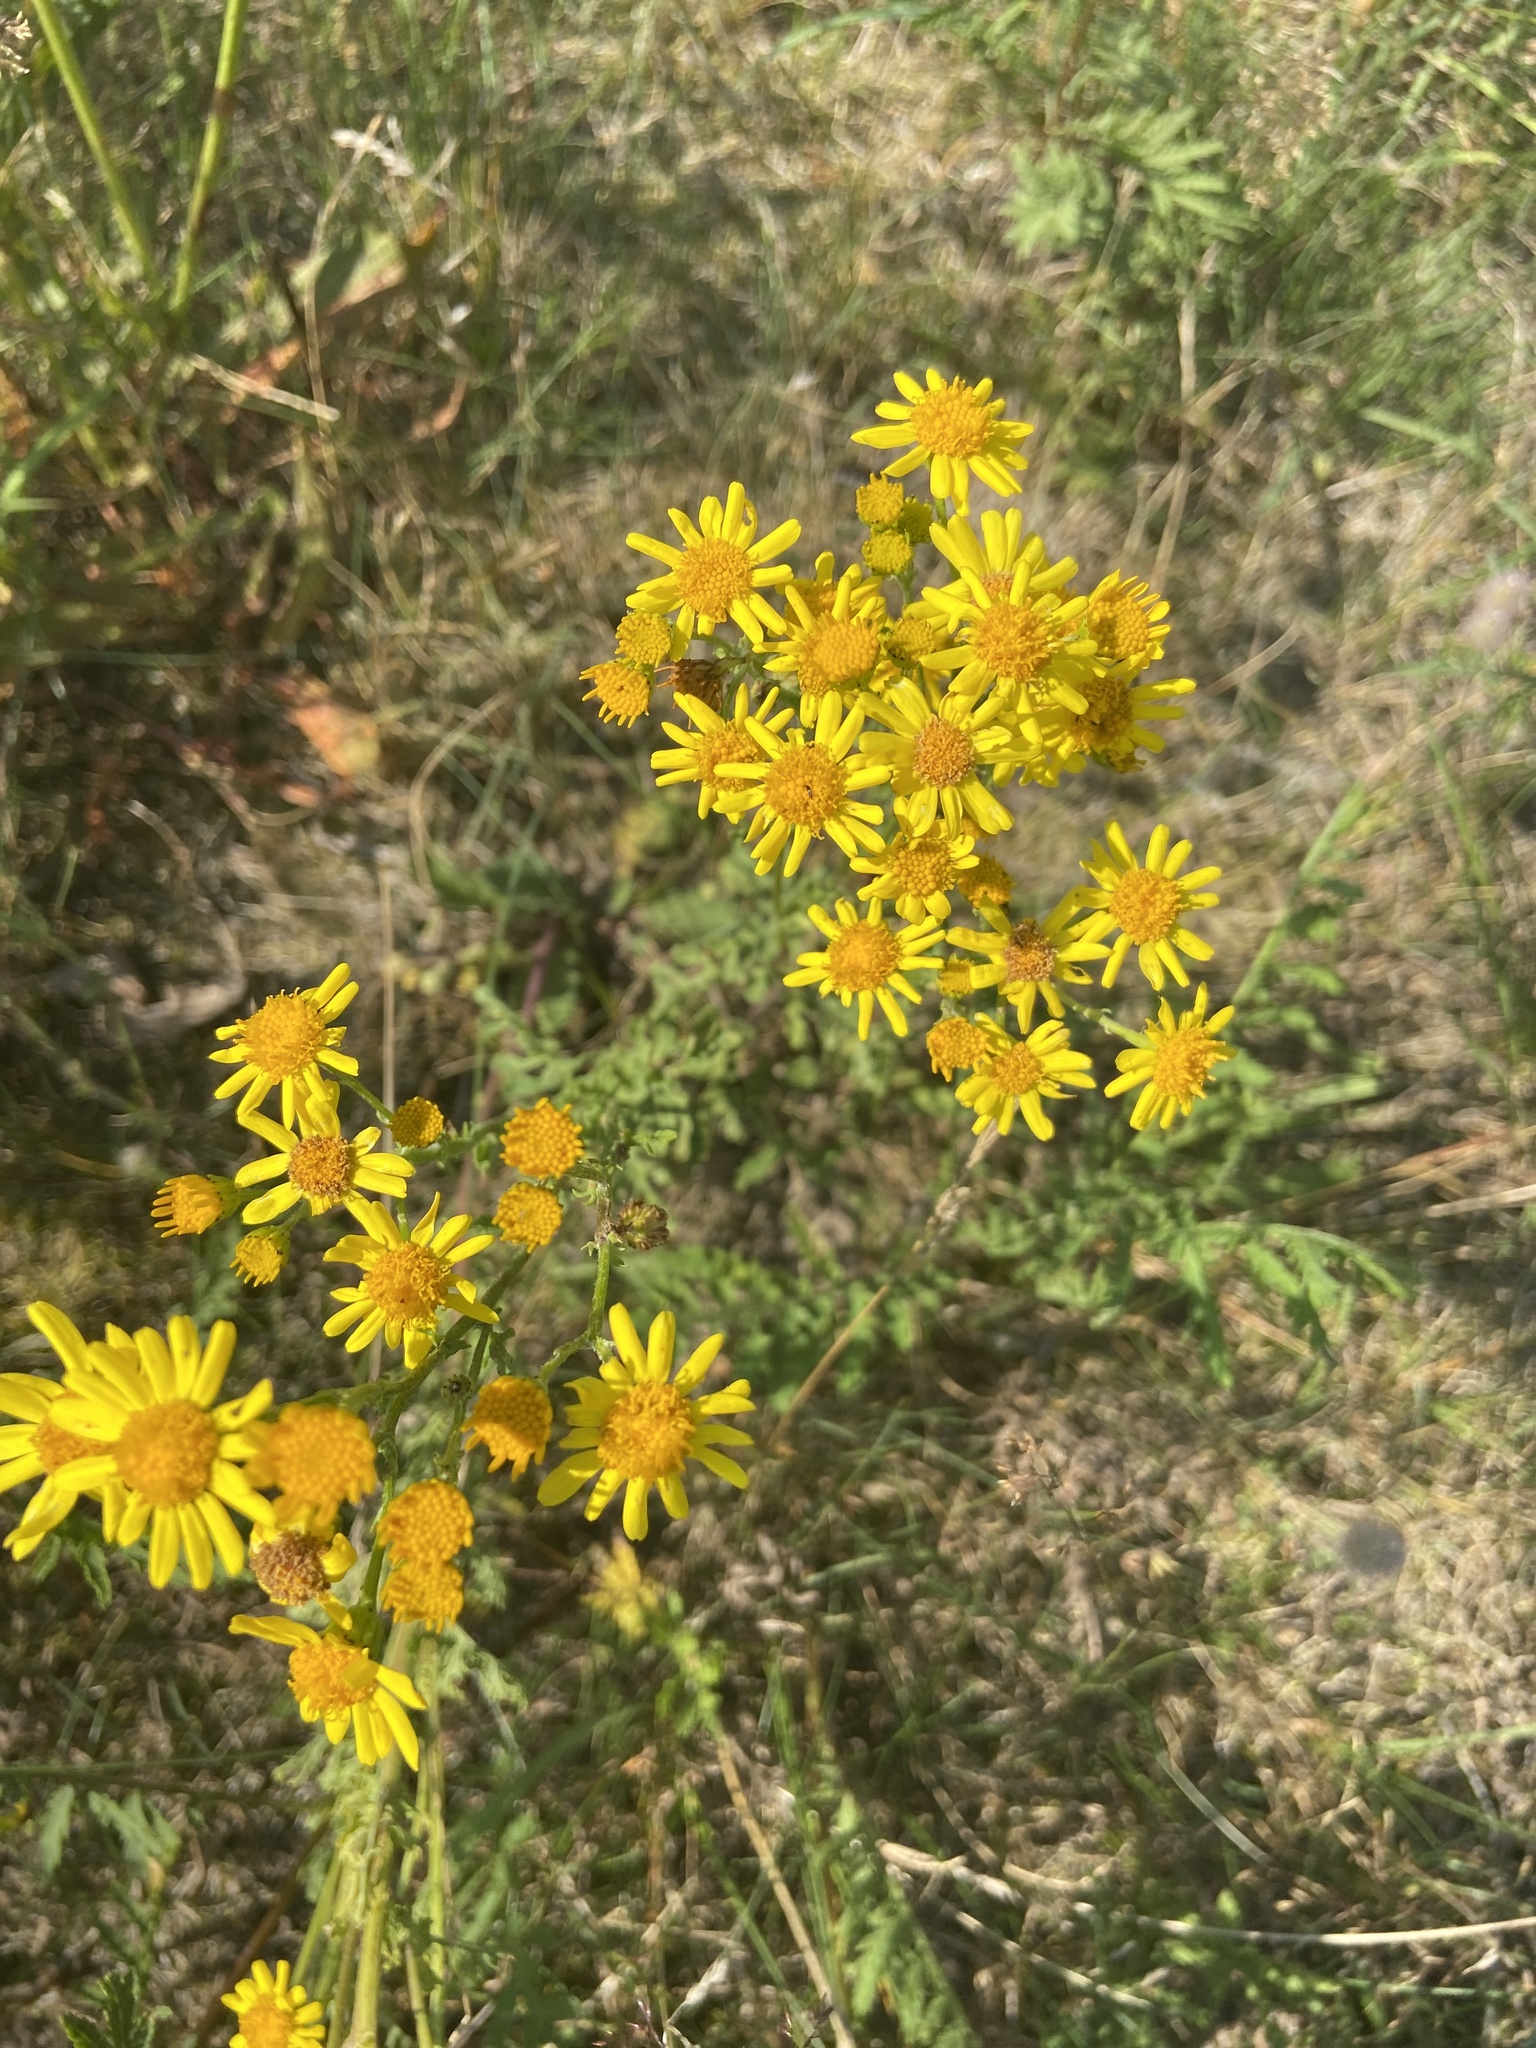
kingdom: Plantae
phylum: Tracheophyta
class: Magnoliopsida
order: Asterales
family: Asteraceae
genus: Jacobaea
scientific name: Jacobaea vulgaris
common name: Stinking willie
